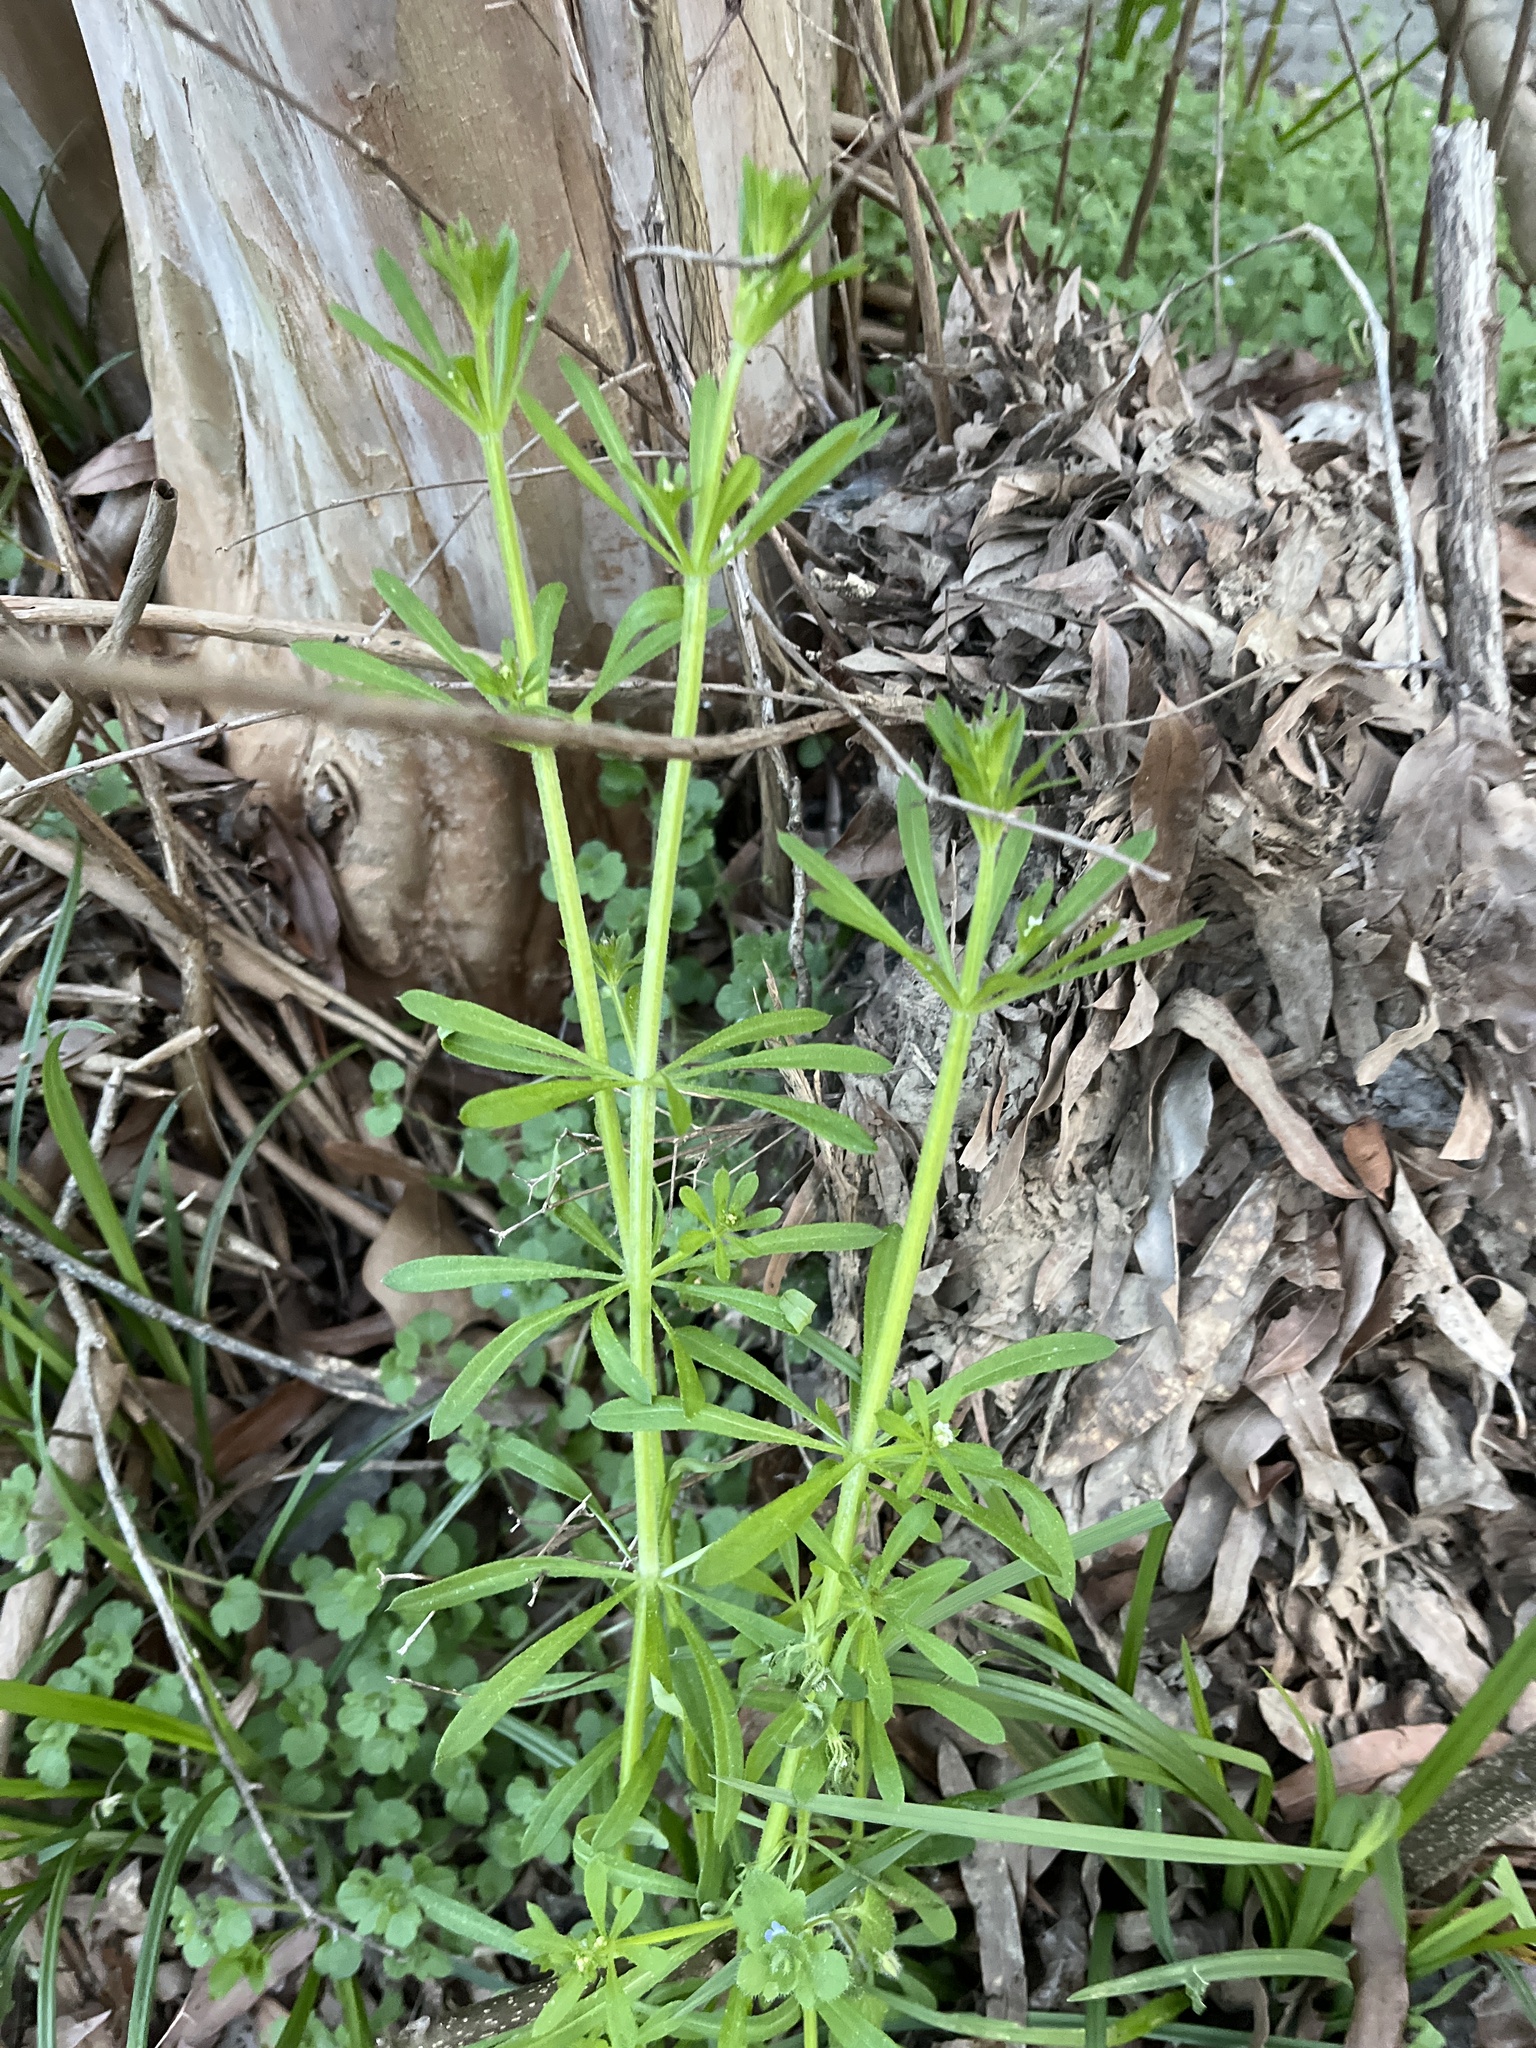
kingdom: Plantae
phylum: Tracheophyta
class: Magnoliopsida
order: Gentianales
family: Rubiaceae
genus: Galium
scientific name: Galium aparine
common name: Cleavers
